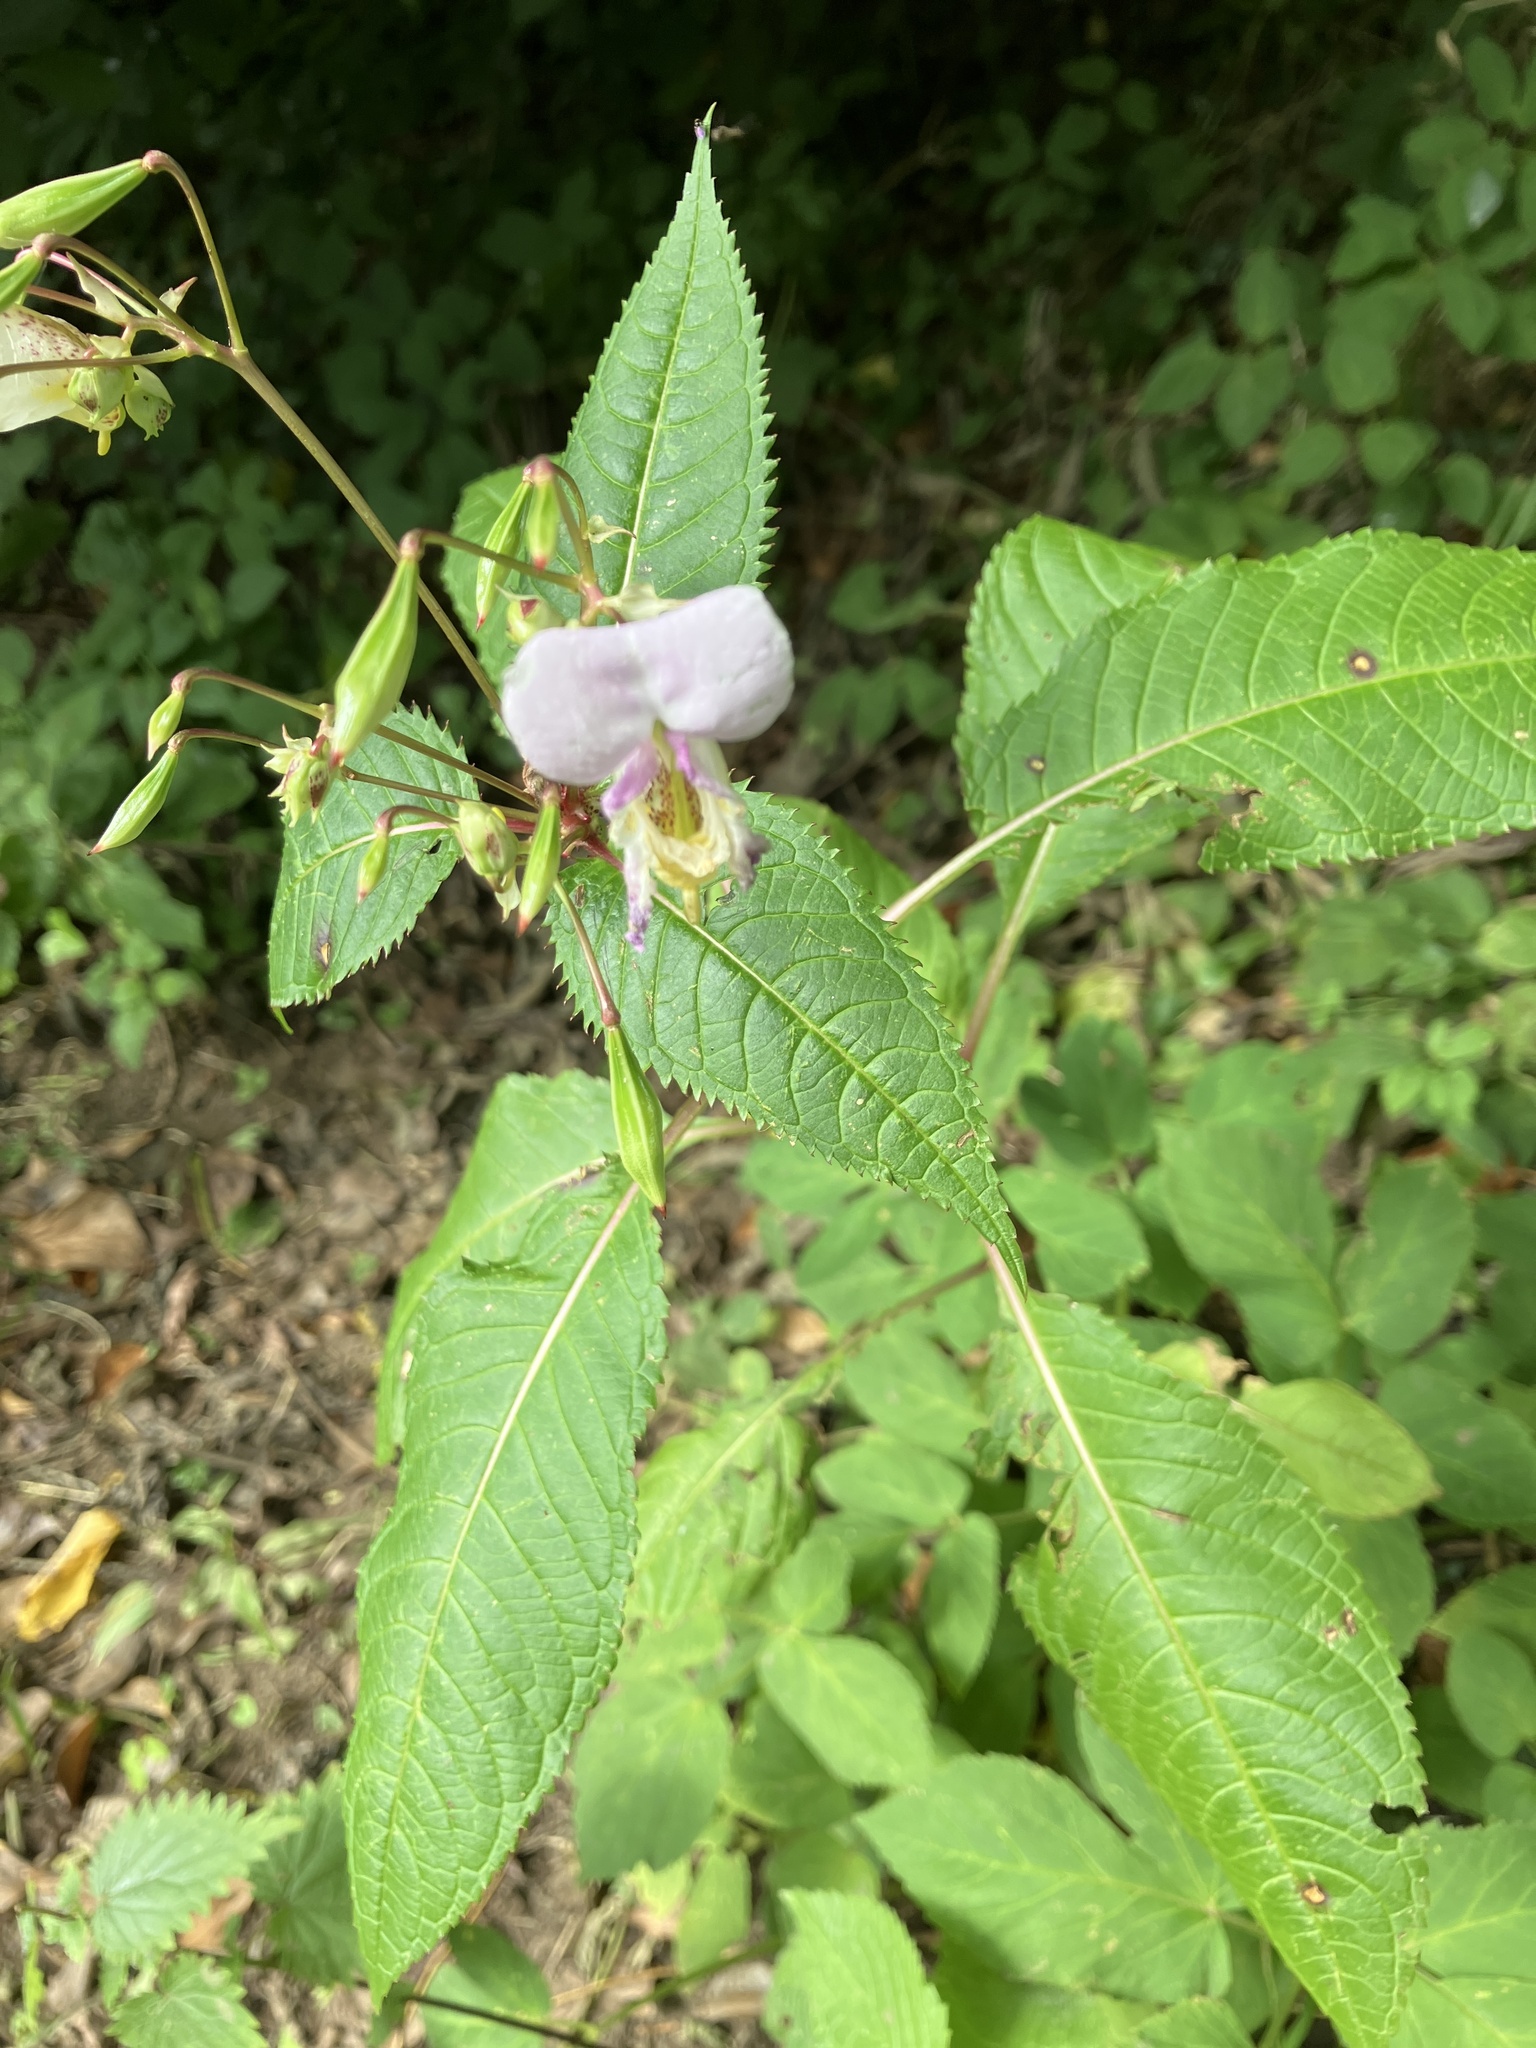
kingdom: Plantae
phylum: Tracheophyta
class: Magnoliopsida
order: Ericales
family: Balsaminaceae
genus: Impatiens
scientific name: Impatiens glandulifera
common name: Himalayan balsam
